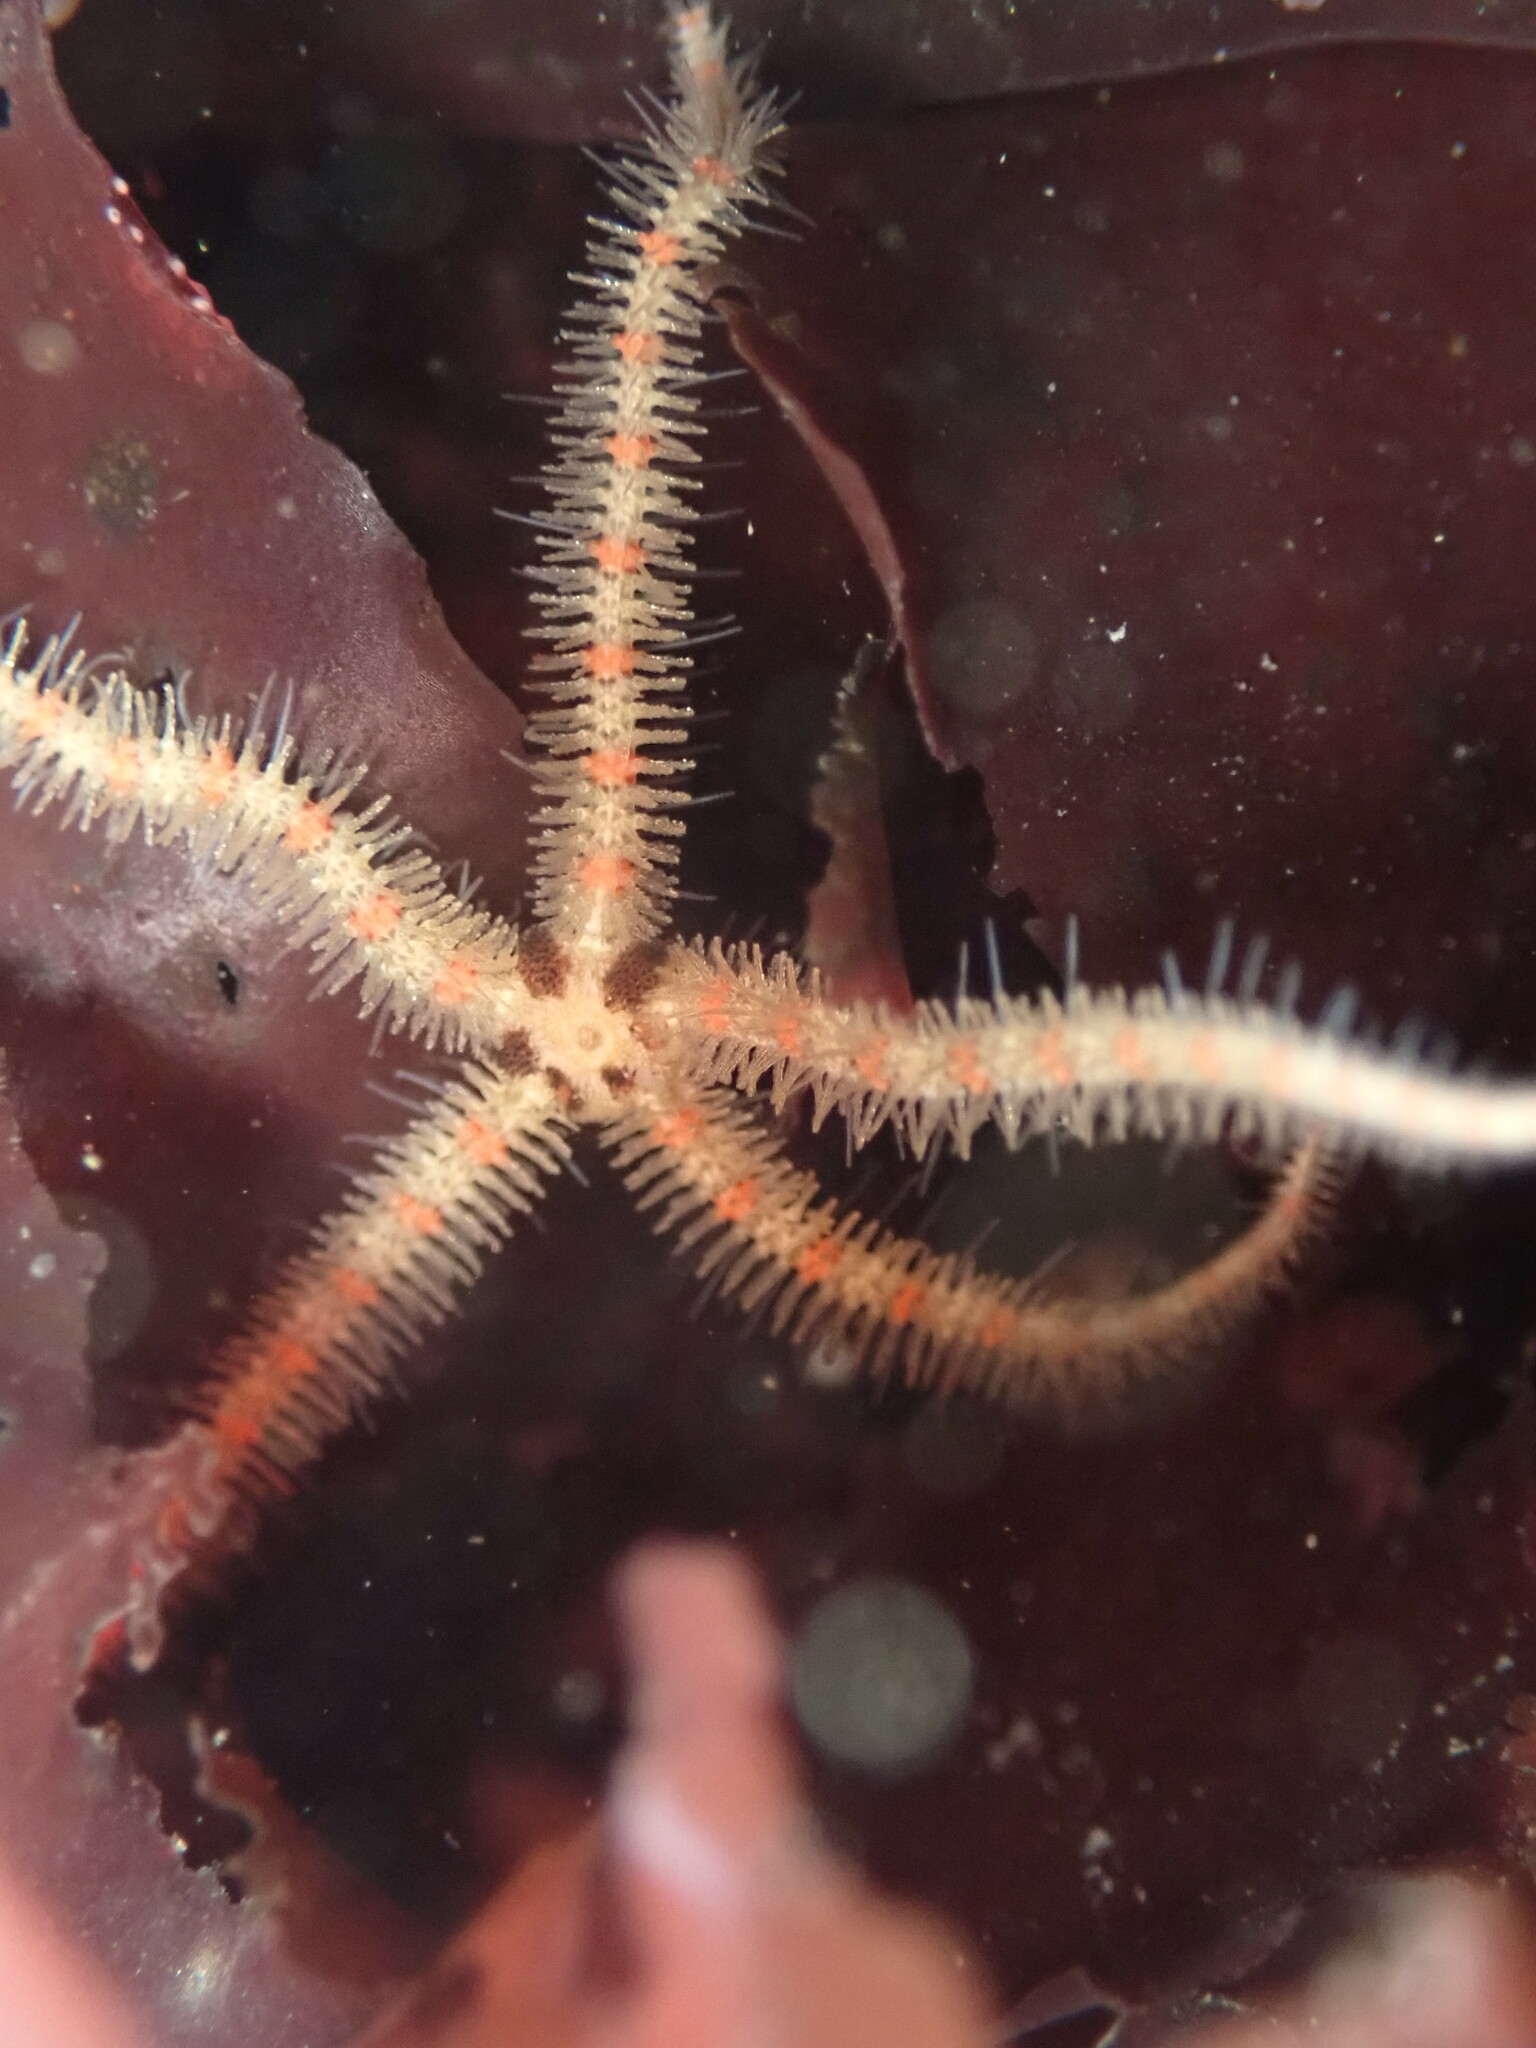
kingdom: Animalia
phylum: Echinodermata
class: Ophiuroidea
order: Amphilepidida
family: Ophiotrichidae
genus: Ophiothrix
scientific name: Ophiothrix spiculata
